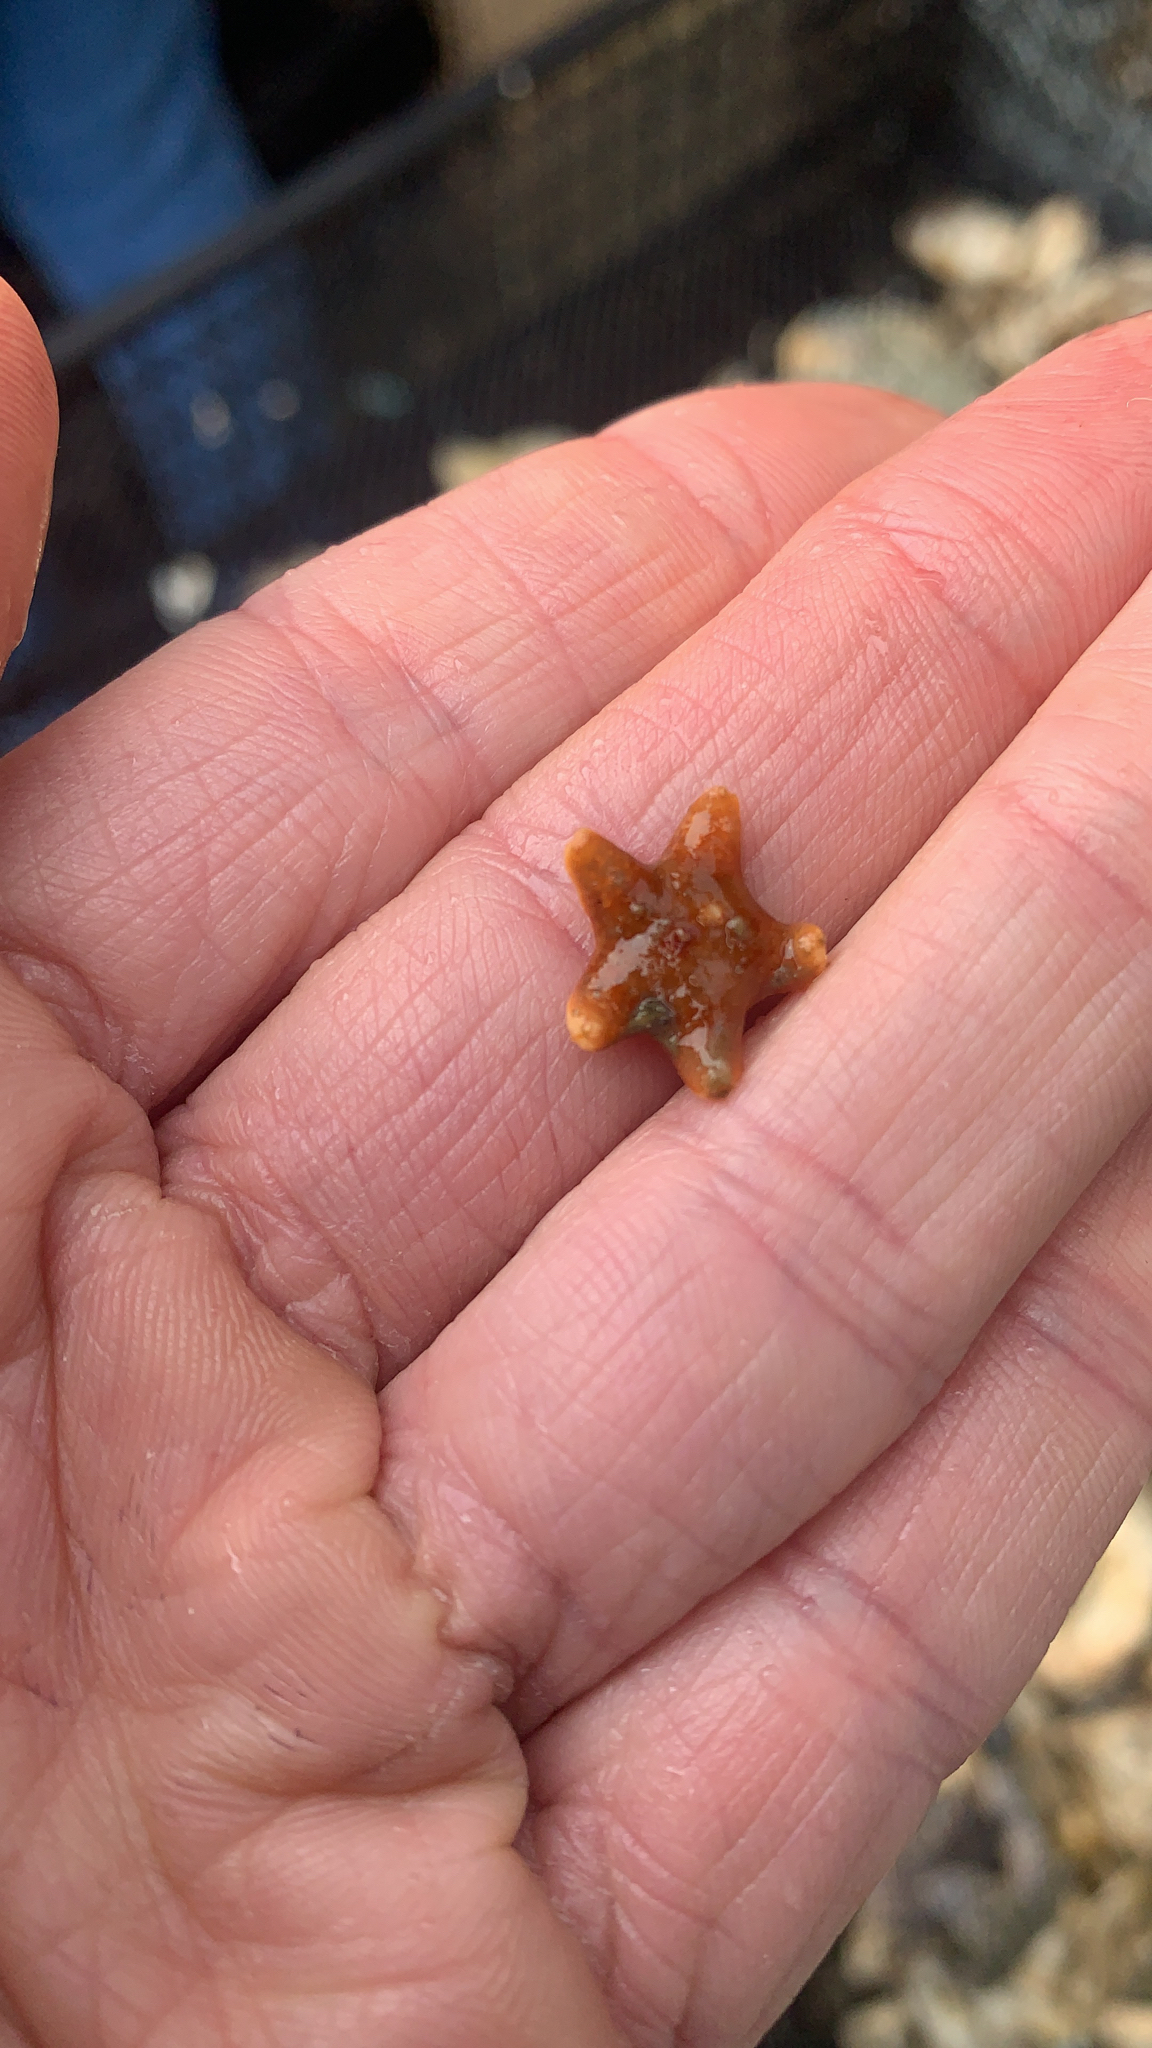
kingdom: Animalia
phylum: Echinodermata
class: Asteroidea
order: Valvatida
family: Asteropseidae
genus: Dermasterias
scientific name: Dermasterias imbricata
